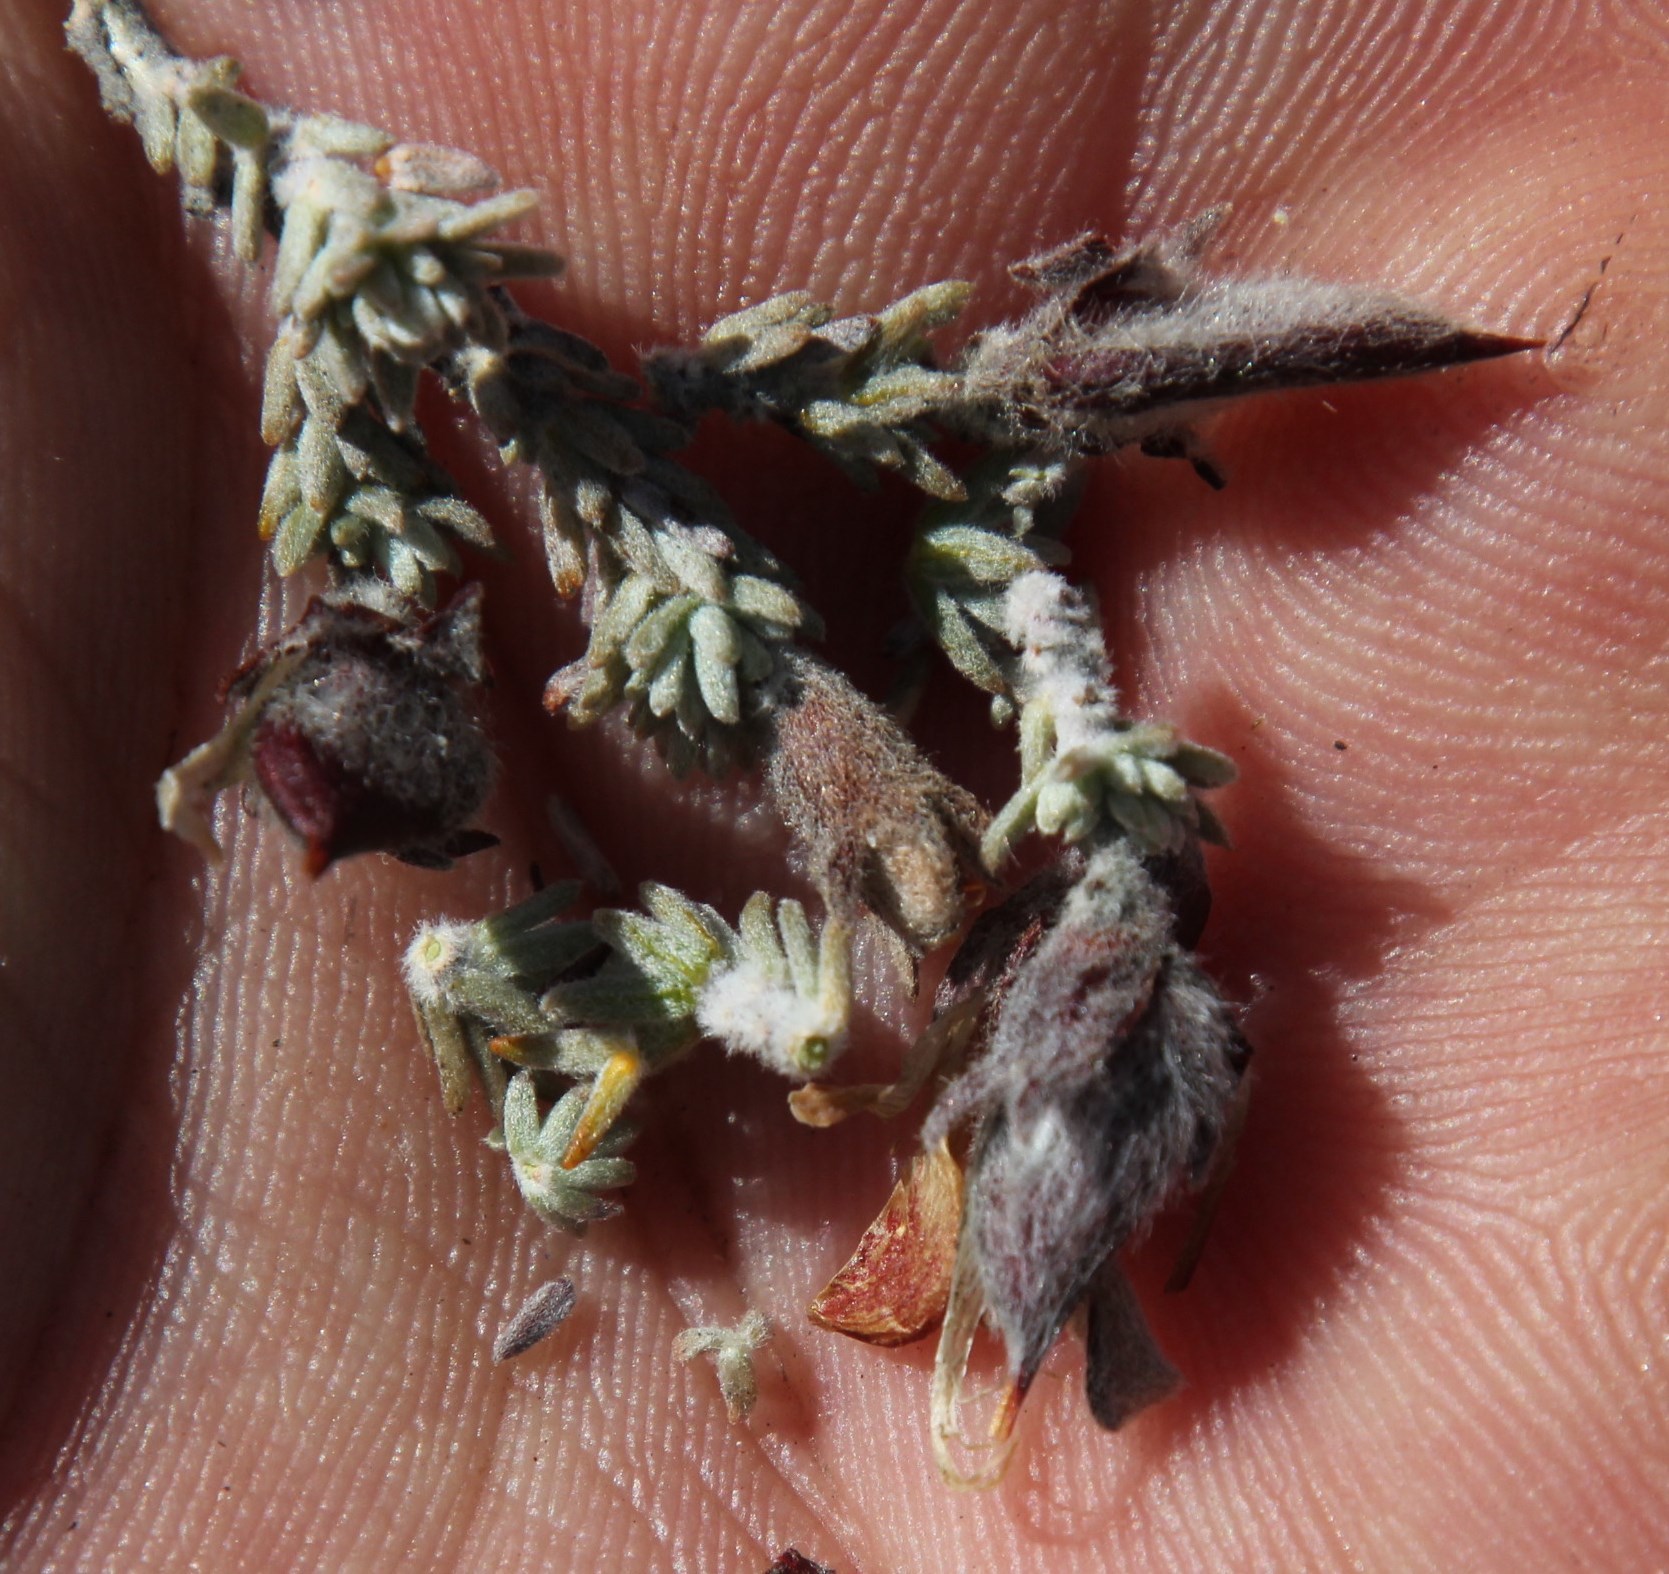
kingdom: Plantae
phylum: Tracheophyta
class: Magnoliopsida
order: Fabales
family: Fabaceae
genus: Aspalathus
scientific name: Aspalathus triquetra
